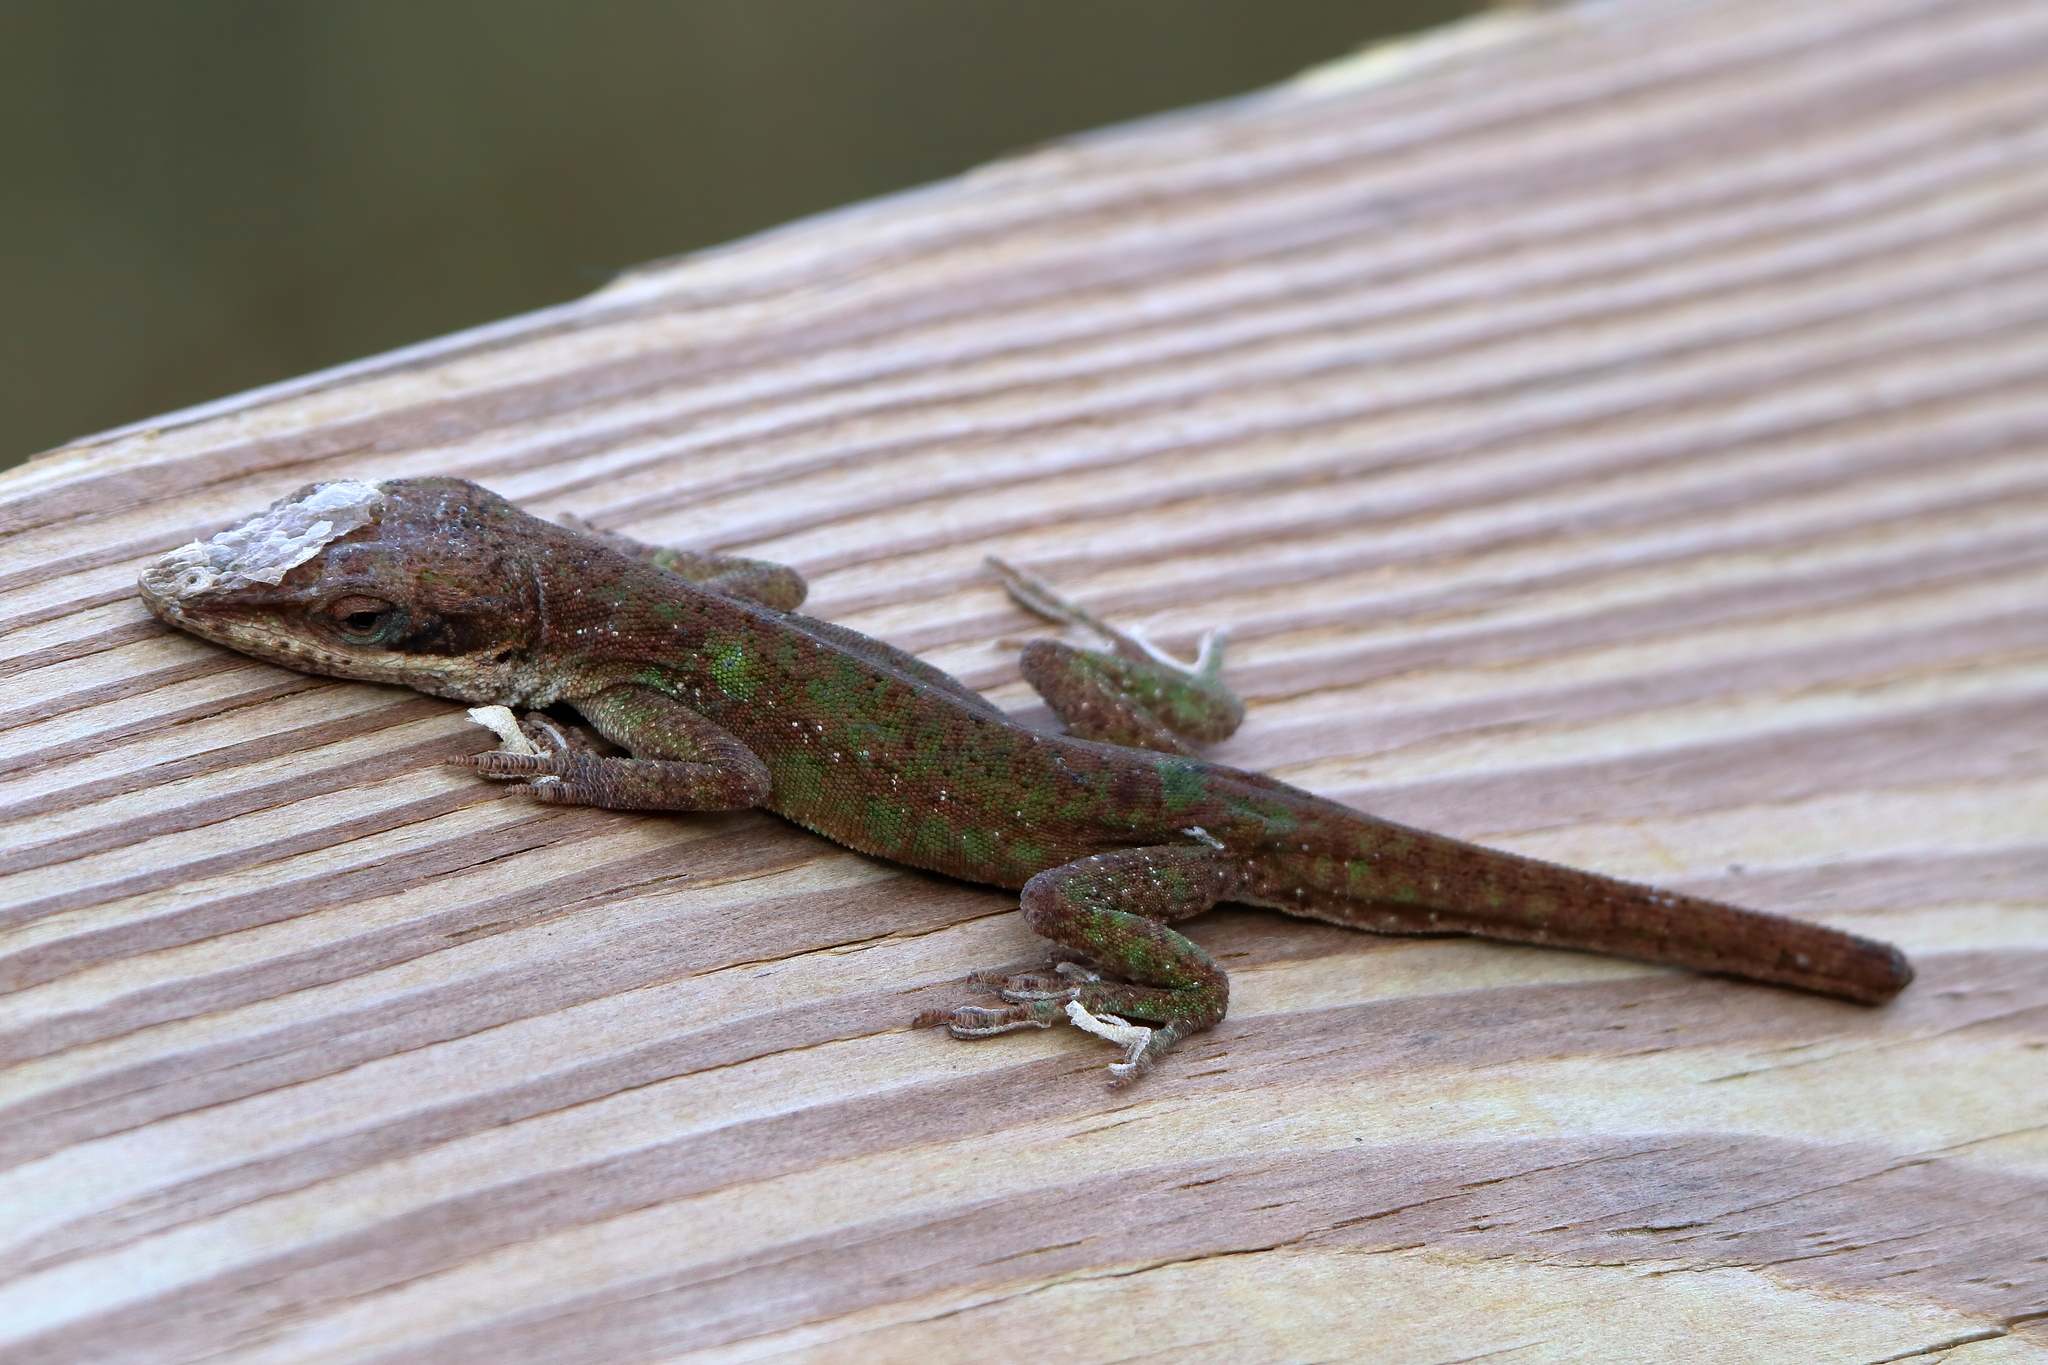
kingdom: Animalia
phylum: Chordata
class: Squamata
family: Dactyloidae
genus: Anolis
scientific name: Anolis carolinensis
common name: Green anole
